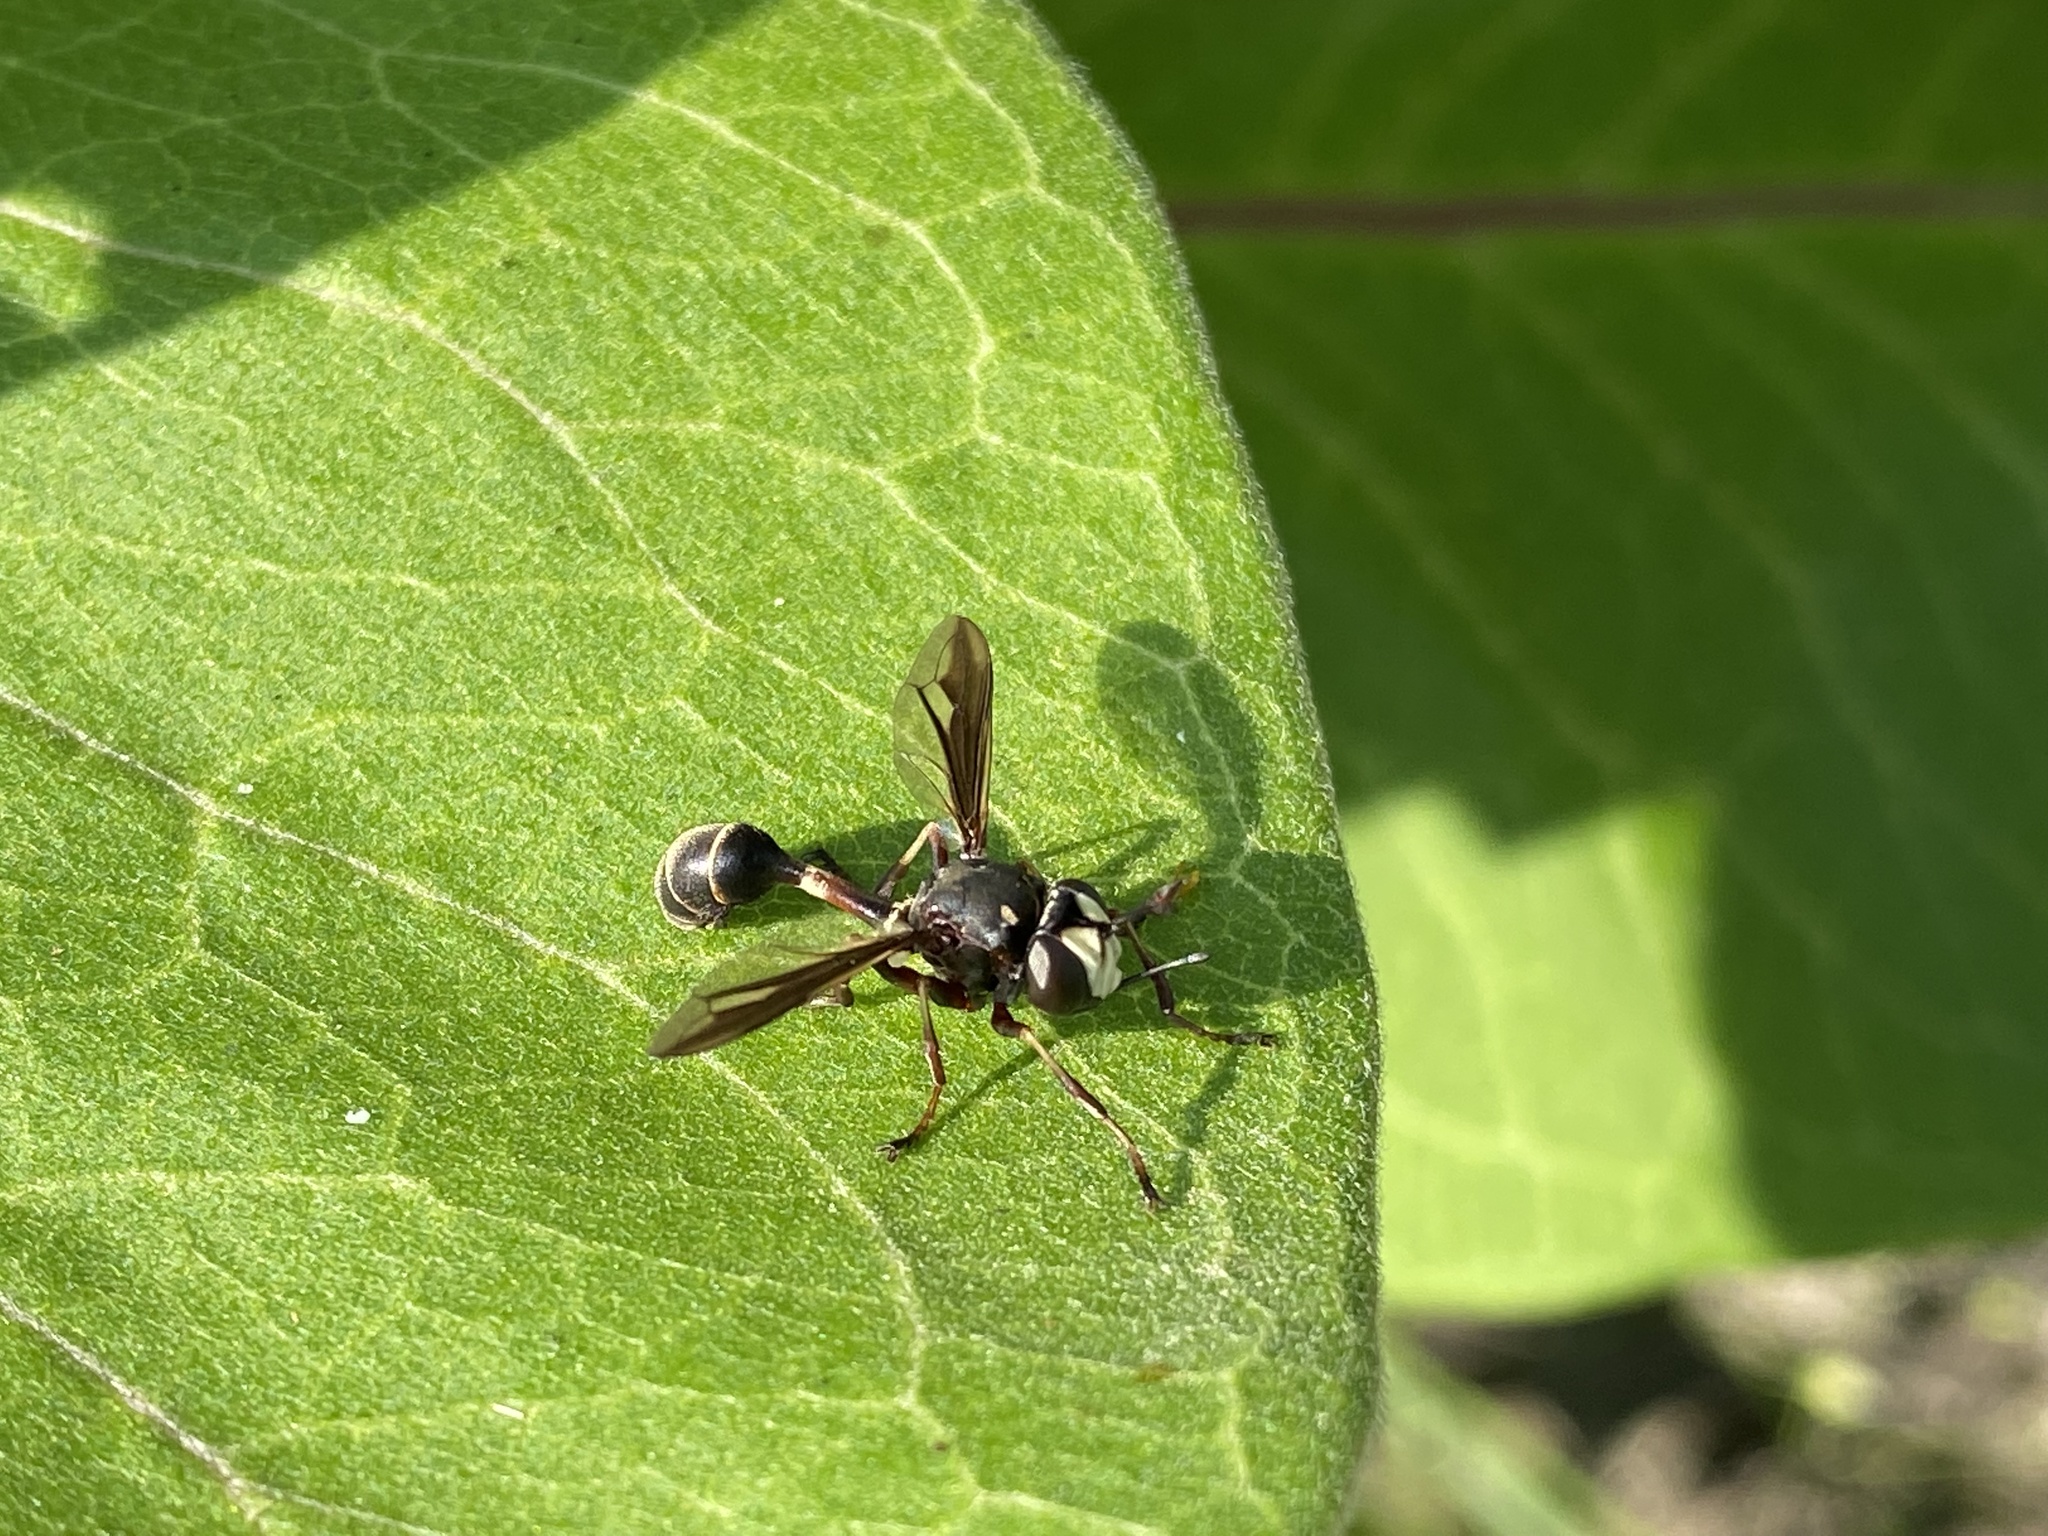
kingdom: Animalia
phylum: Arthropoda
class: Insecta
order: Diptera
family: Conopidae
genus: Physocephala
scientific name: Physocephala furcillata
